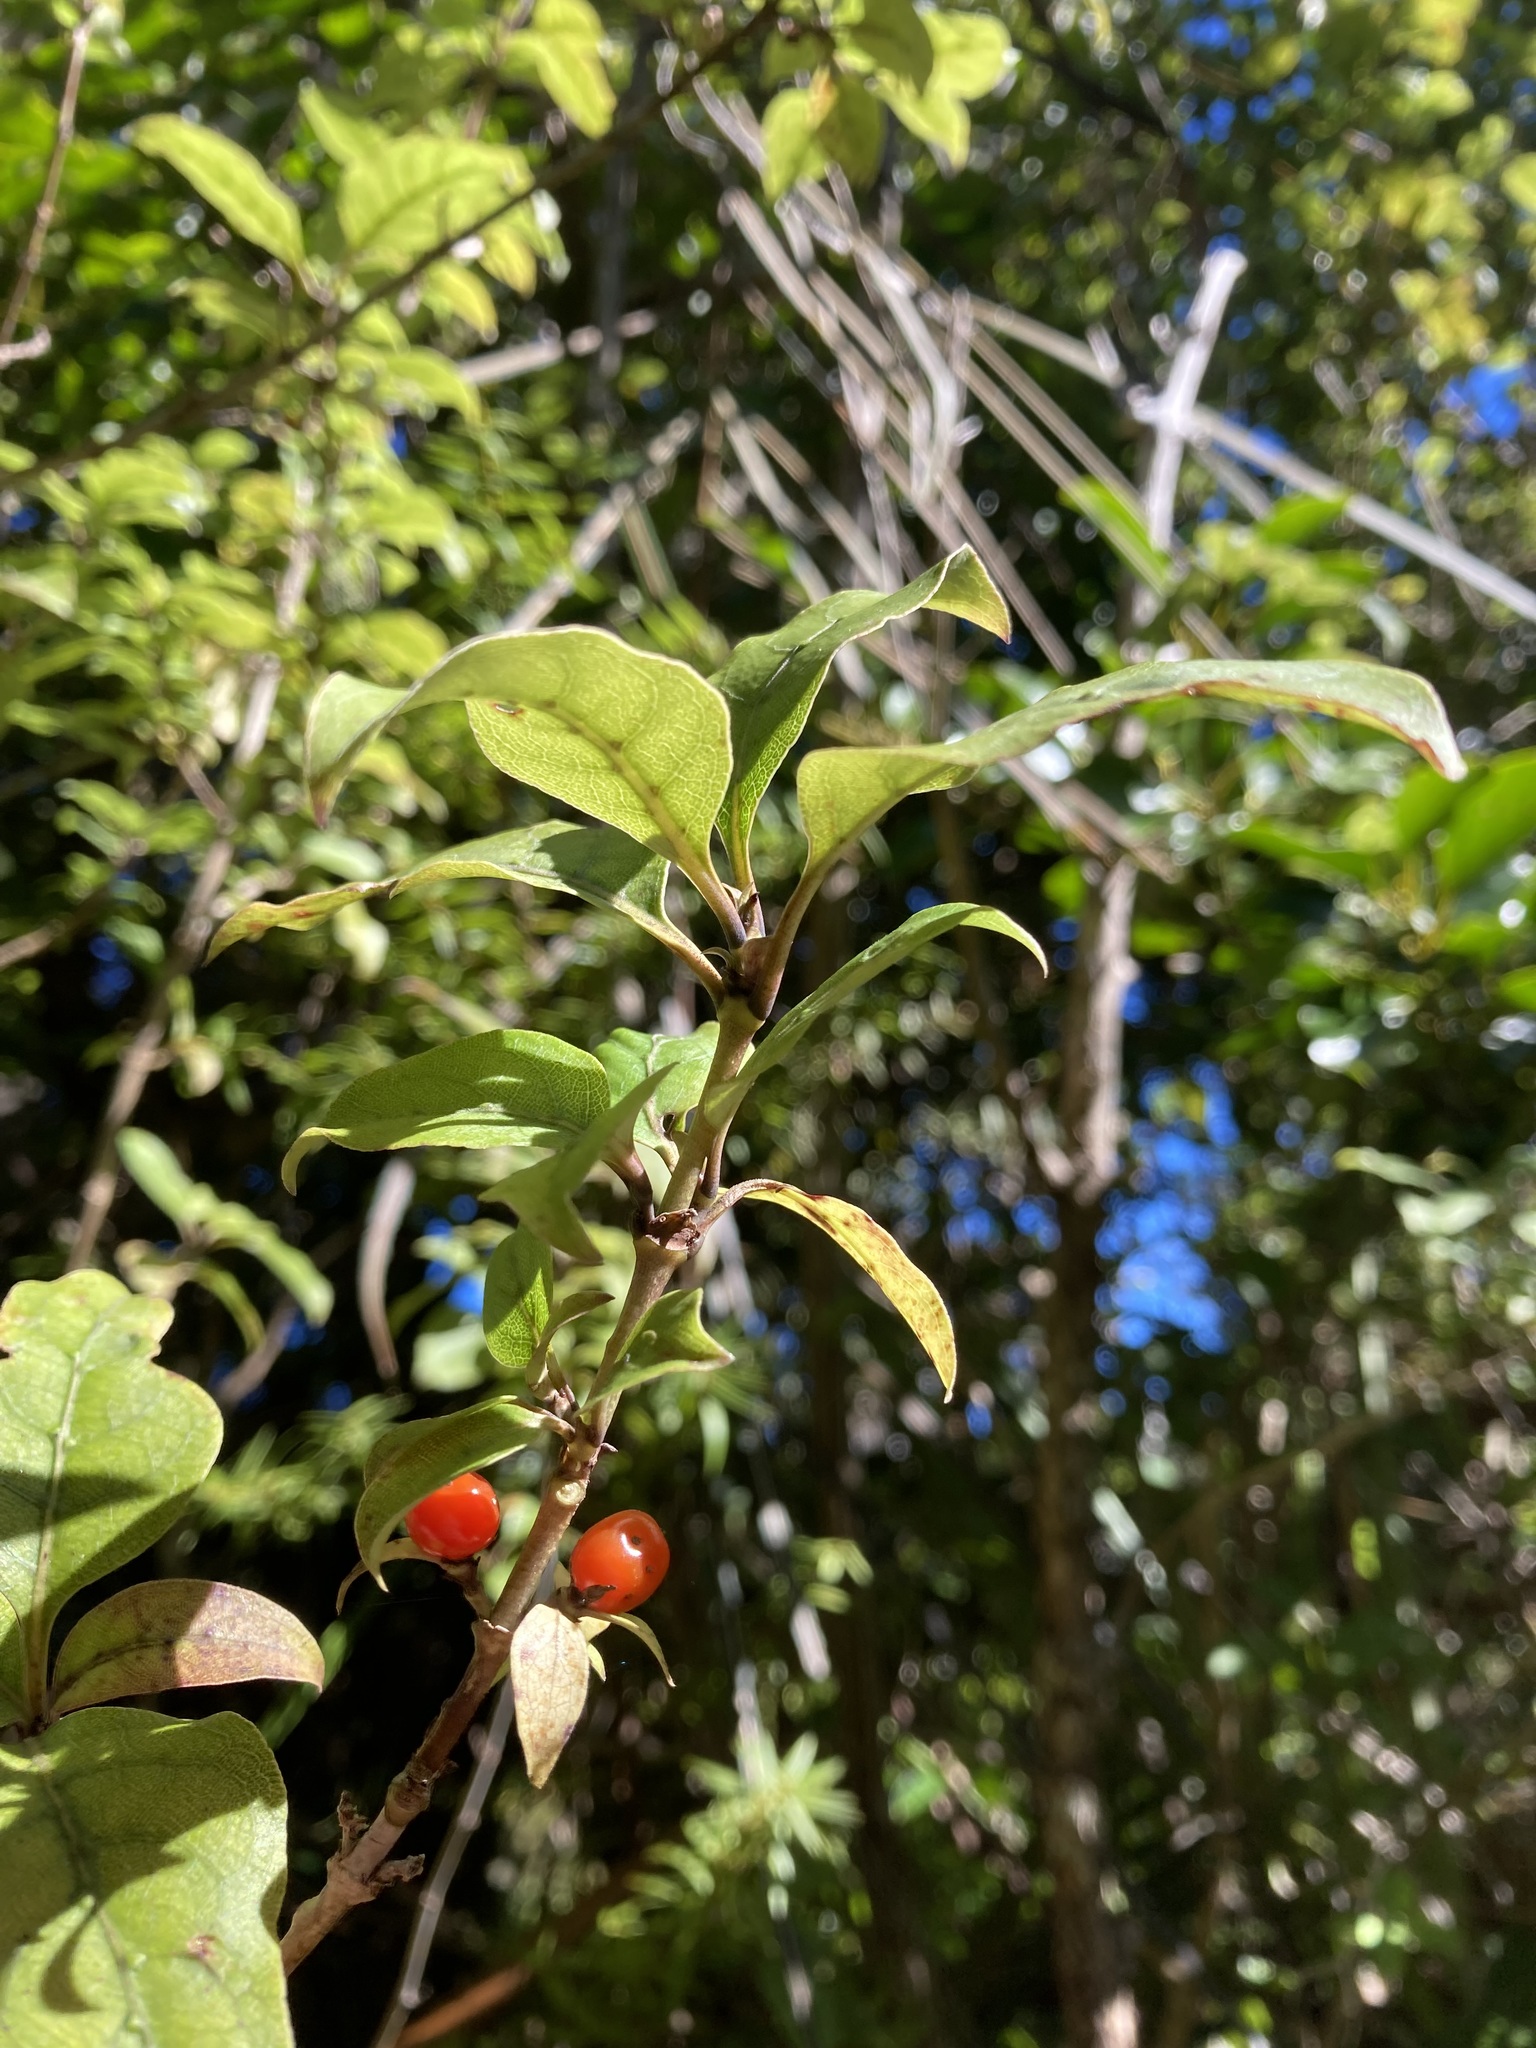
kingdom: Plantae
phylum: Tracheophyta
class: Magnoliopsida
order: Gentianales
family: Rubiaceae
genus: Coprosma
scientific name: Coprosma tenuifolia
